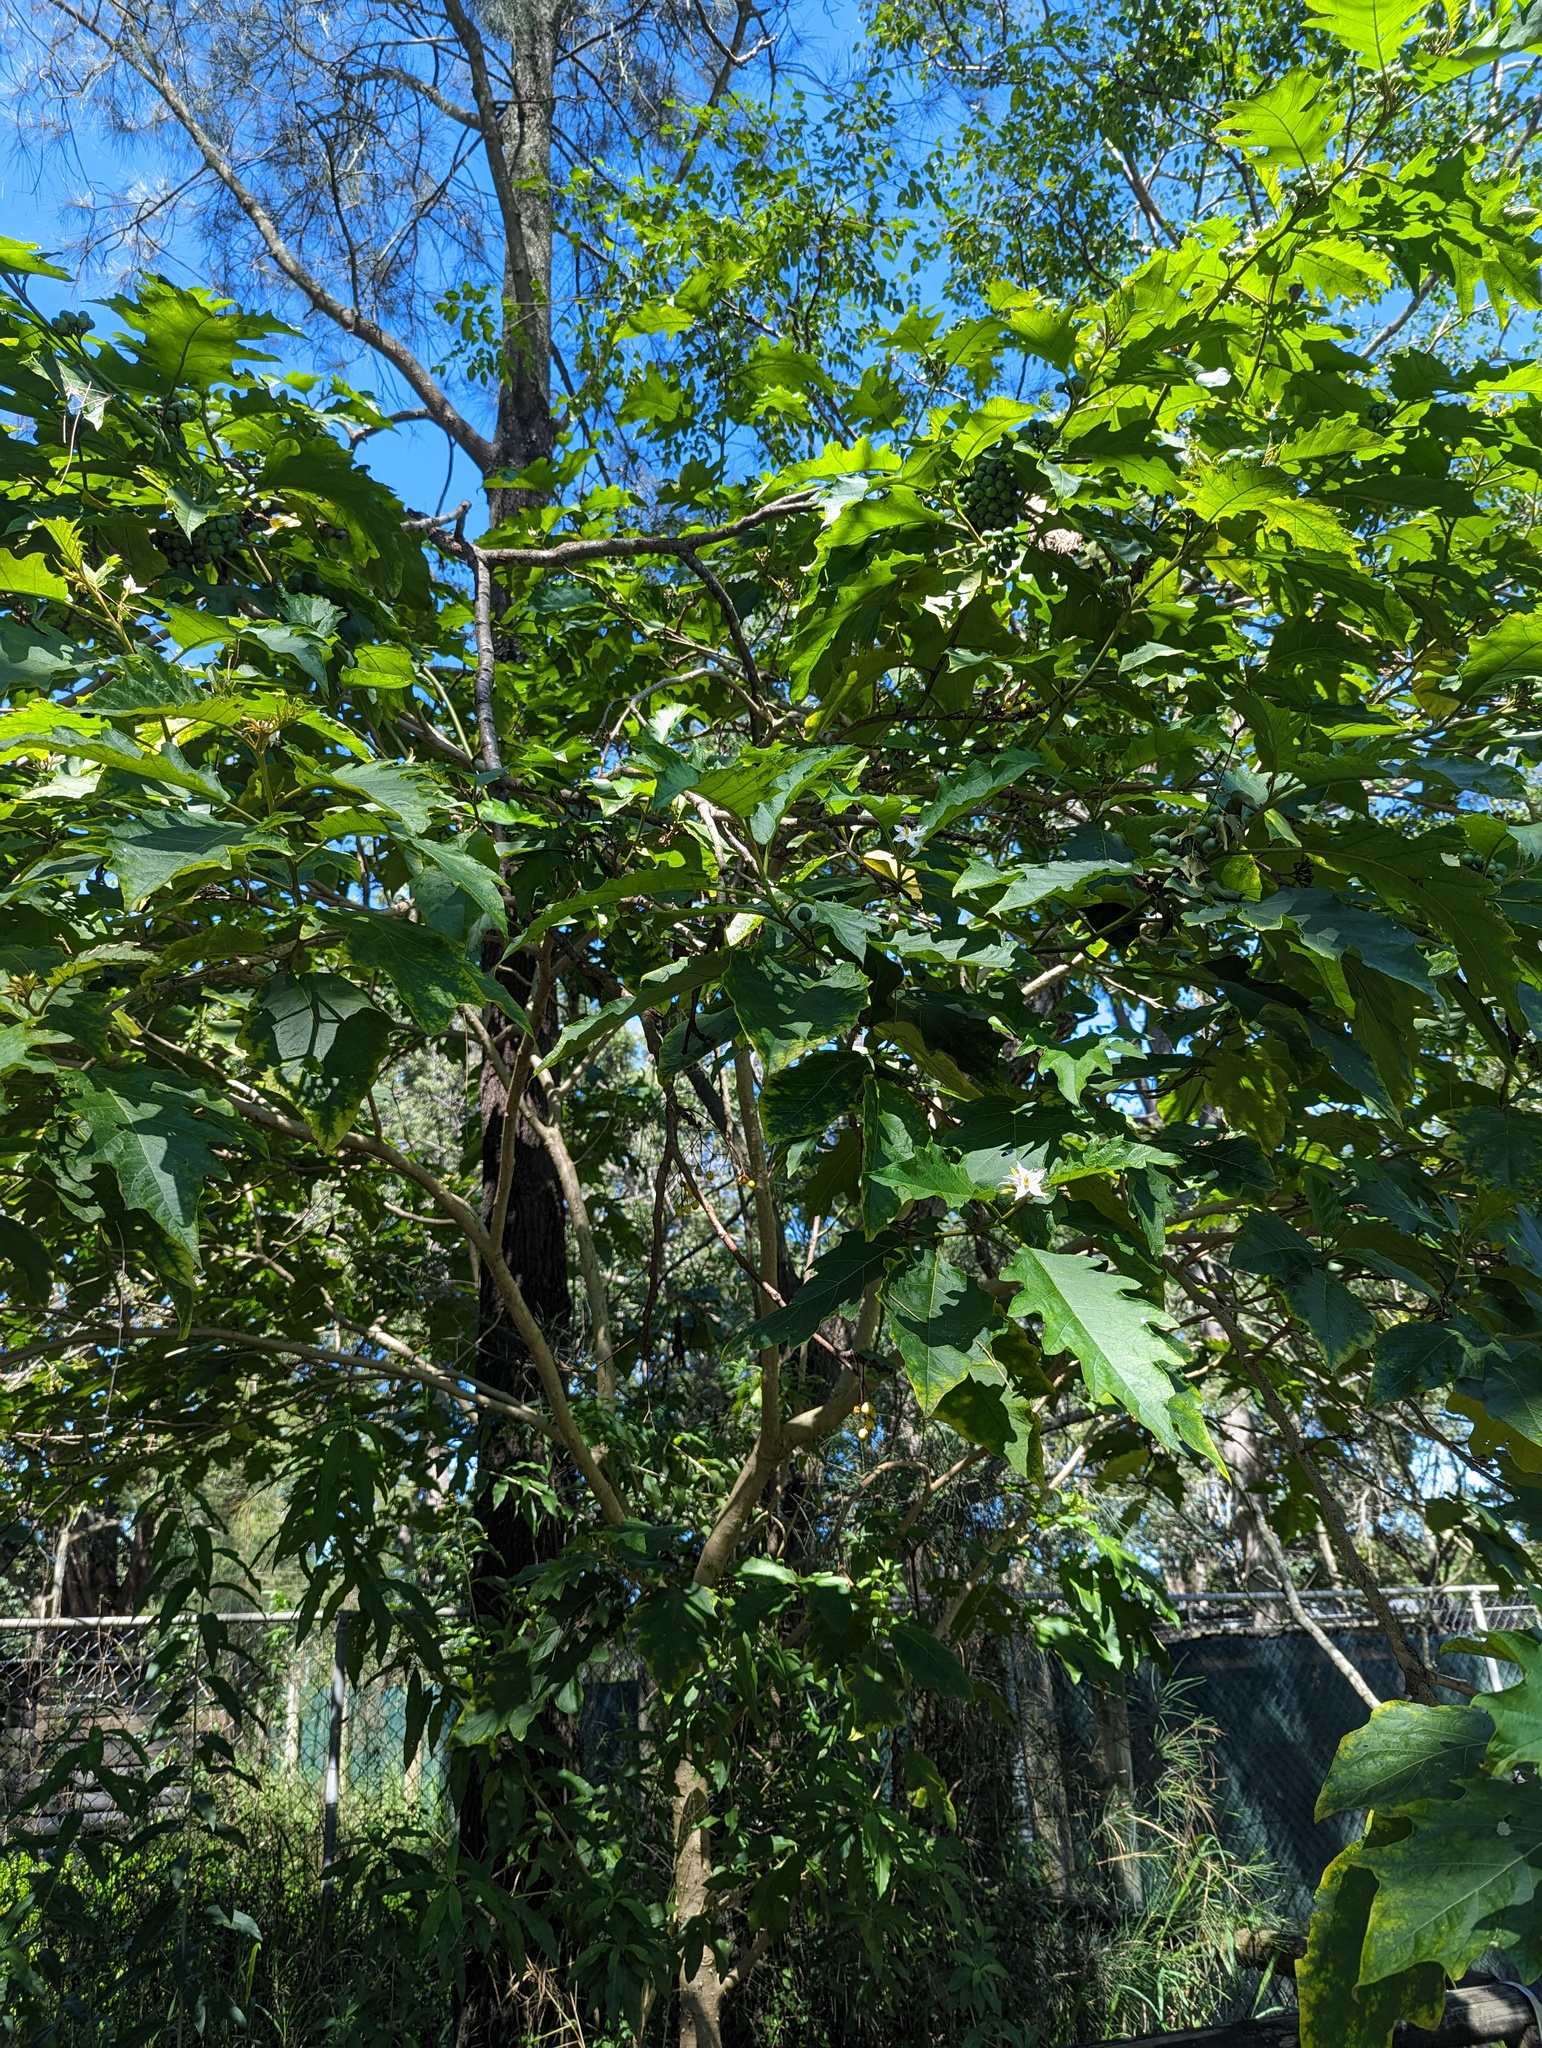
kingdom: Plantae
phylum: Tracheophyta
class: Magnoliopsida
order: Solanales
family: Solanaceae
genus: Solanum
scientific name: Solanum chrysotrichum
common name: Nightshade
